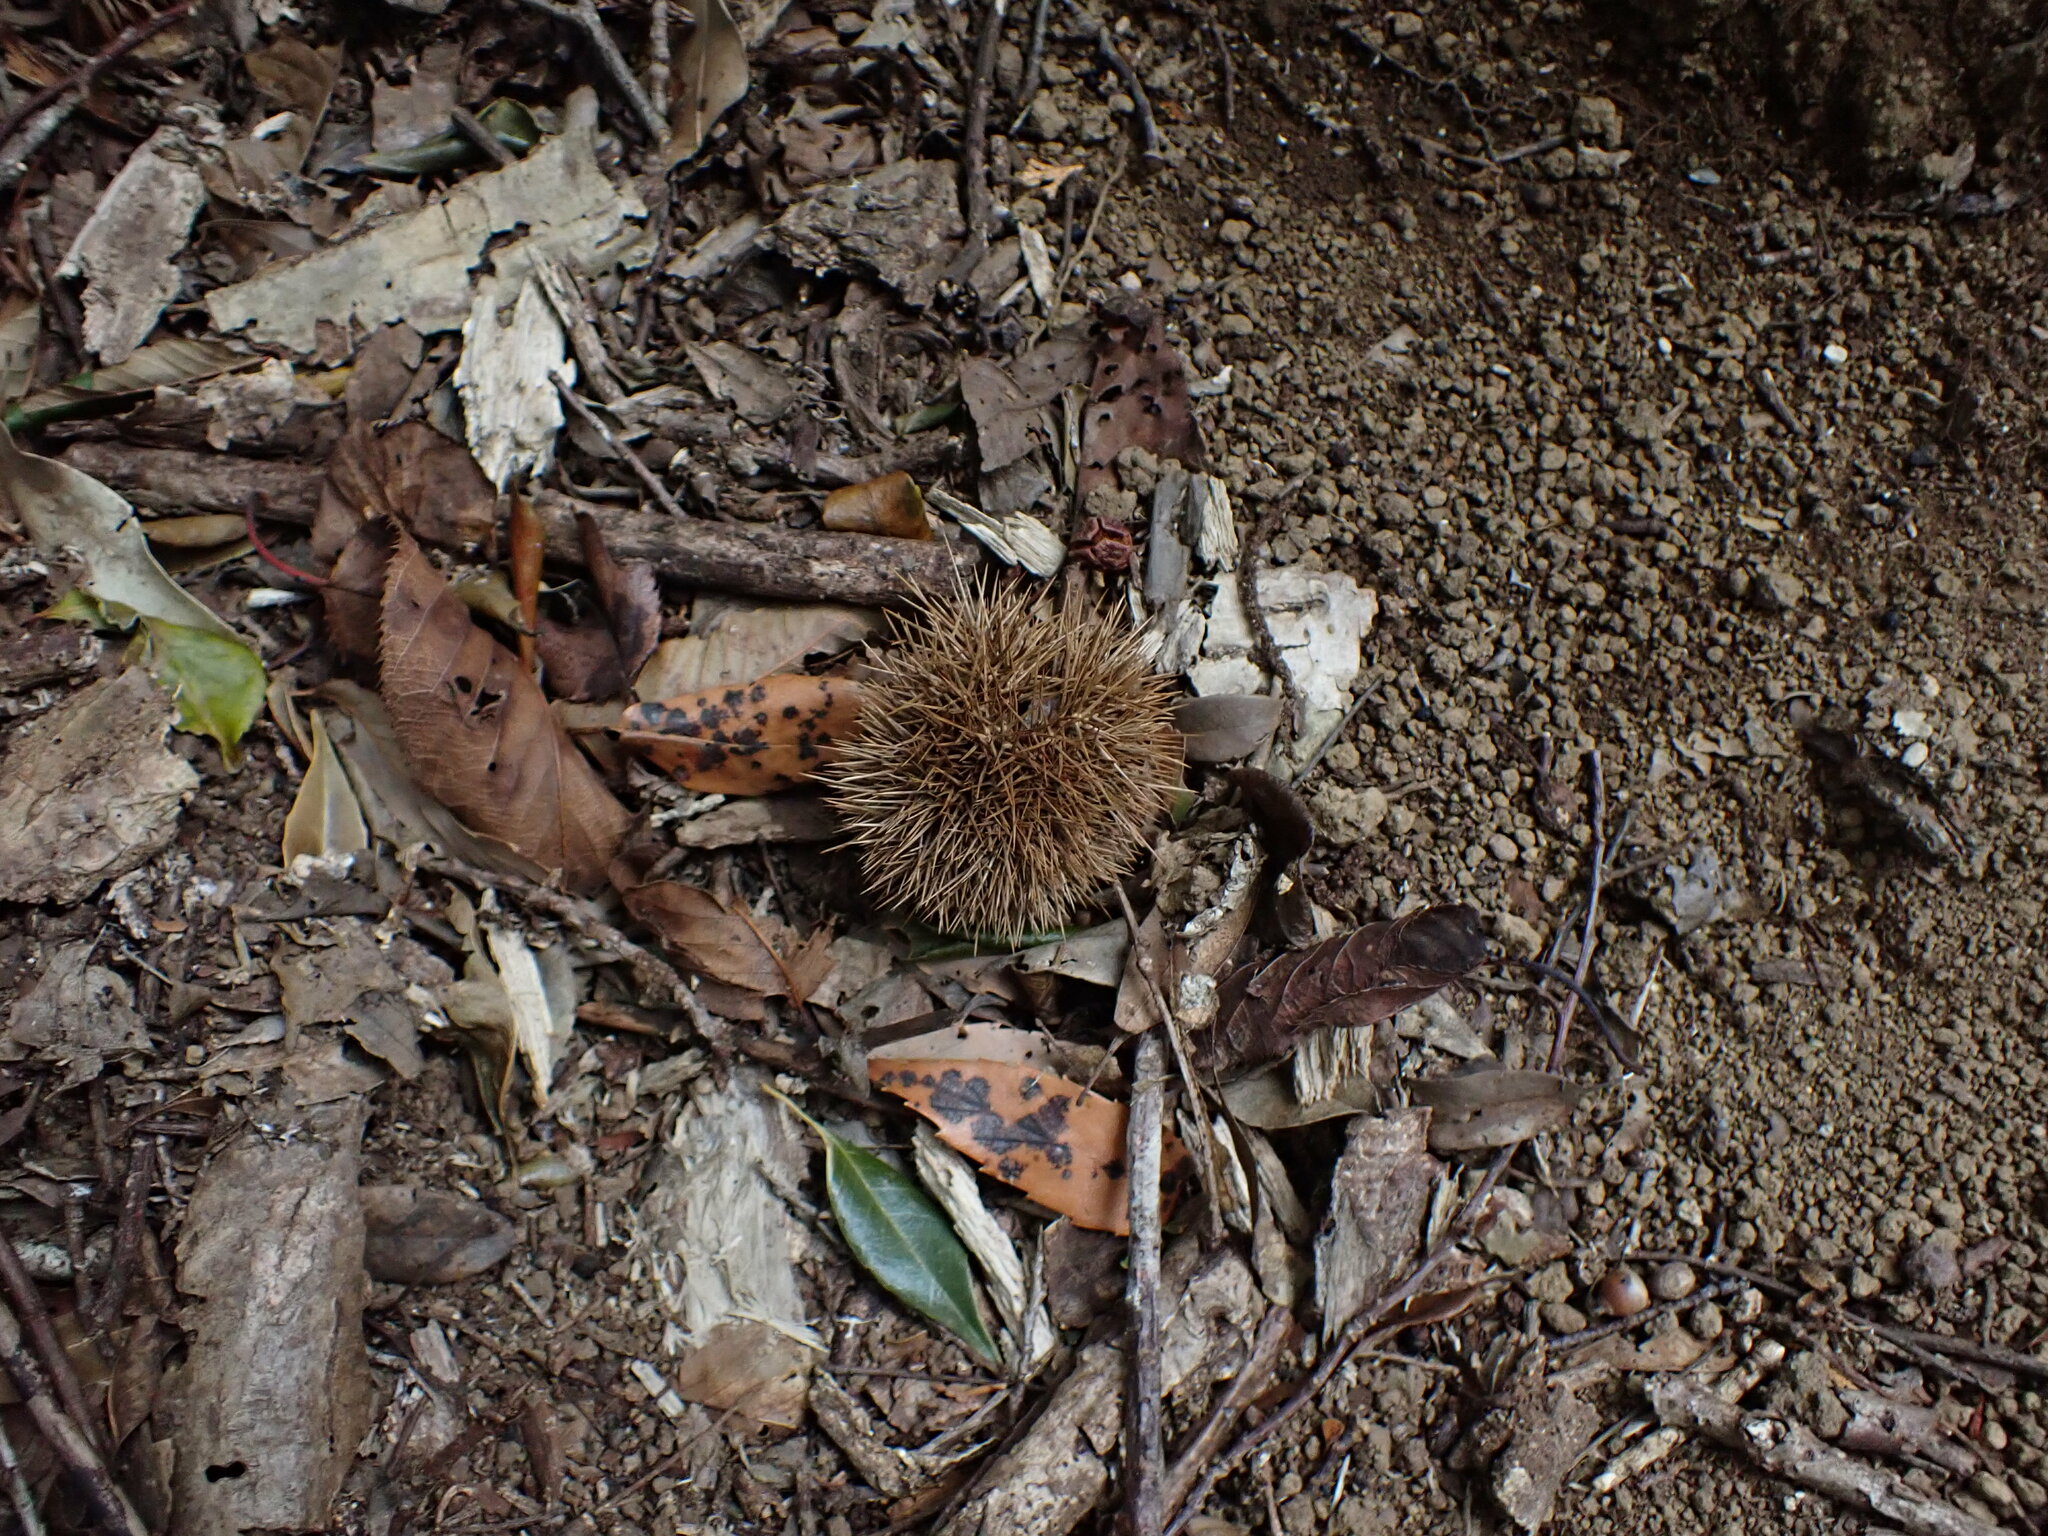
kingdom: Plantae
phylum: Tracheophyta
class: Magnoliopsida
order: Fagales
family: Fagaceae
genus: Castanea
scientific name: Castanea crenata
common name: Japanese chestnut
